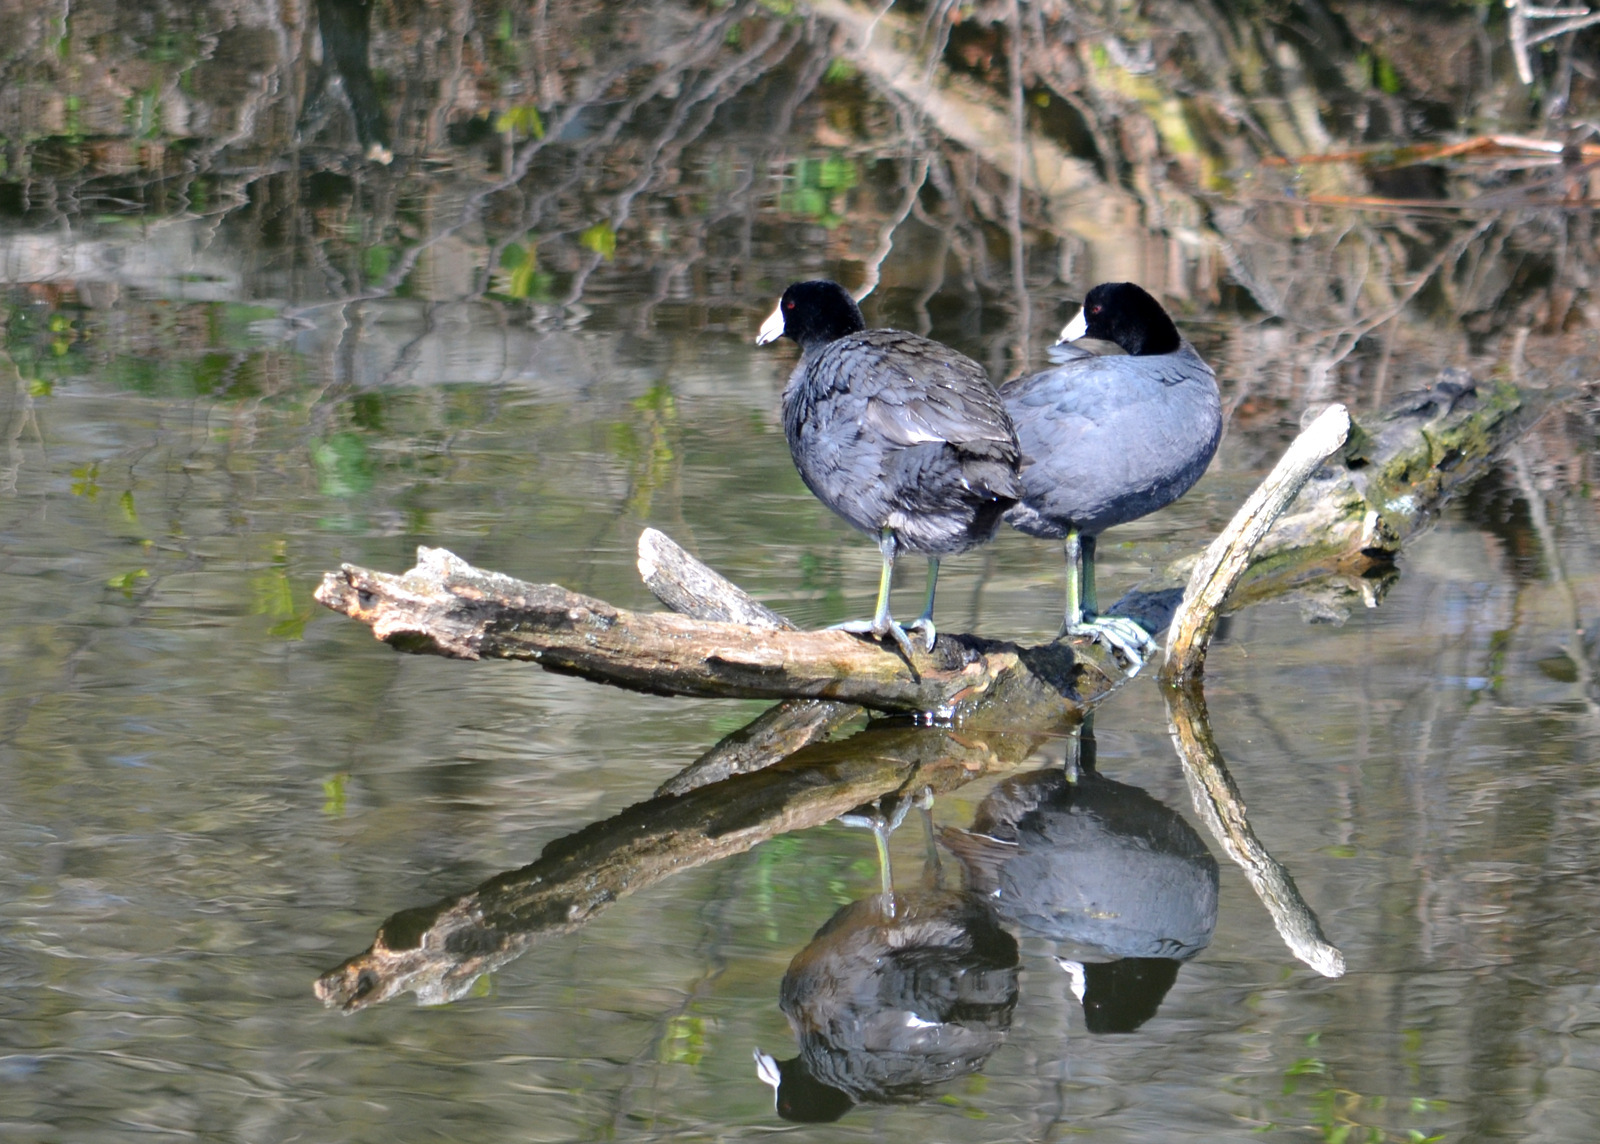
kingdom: Animalia
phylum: Chordata
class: Aves
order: Gruiformes
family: Rallidae
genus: Fulica
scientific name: Fulica americana
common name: American coot
